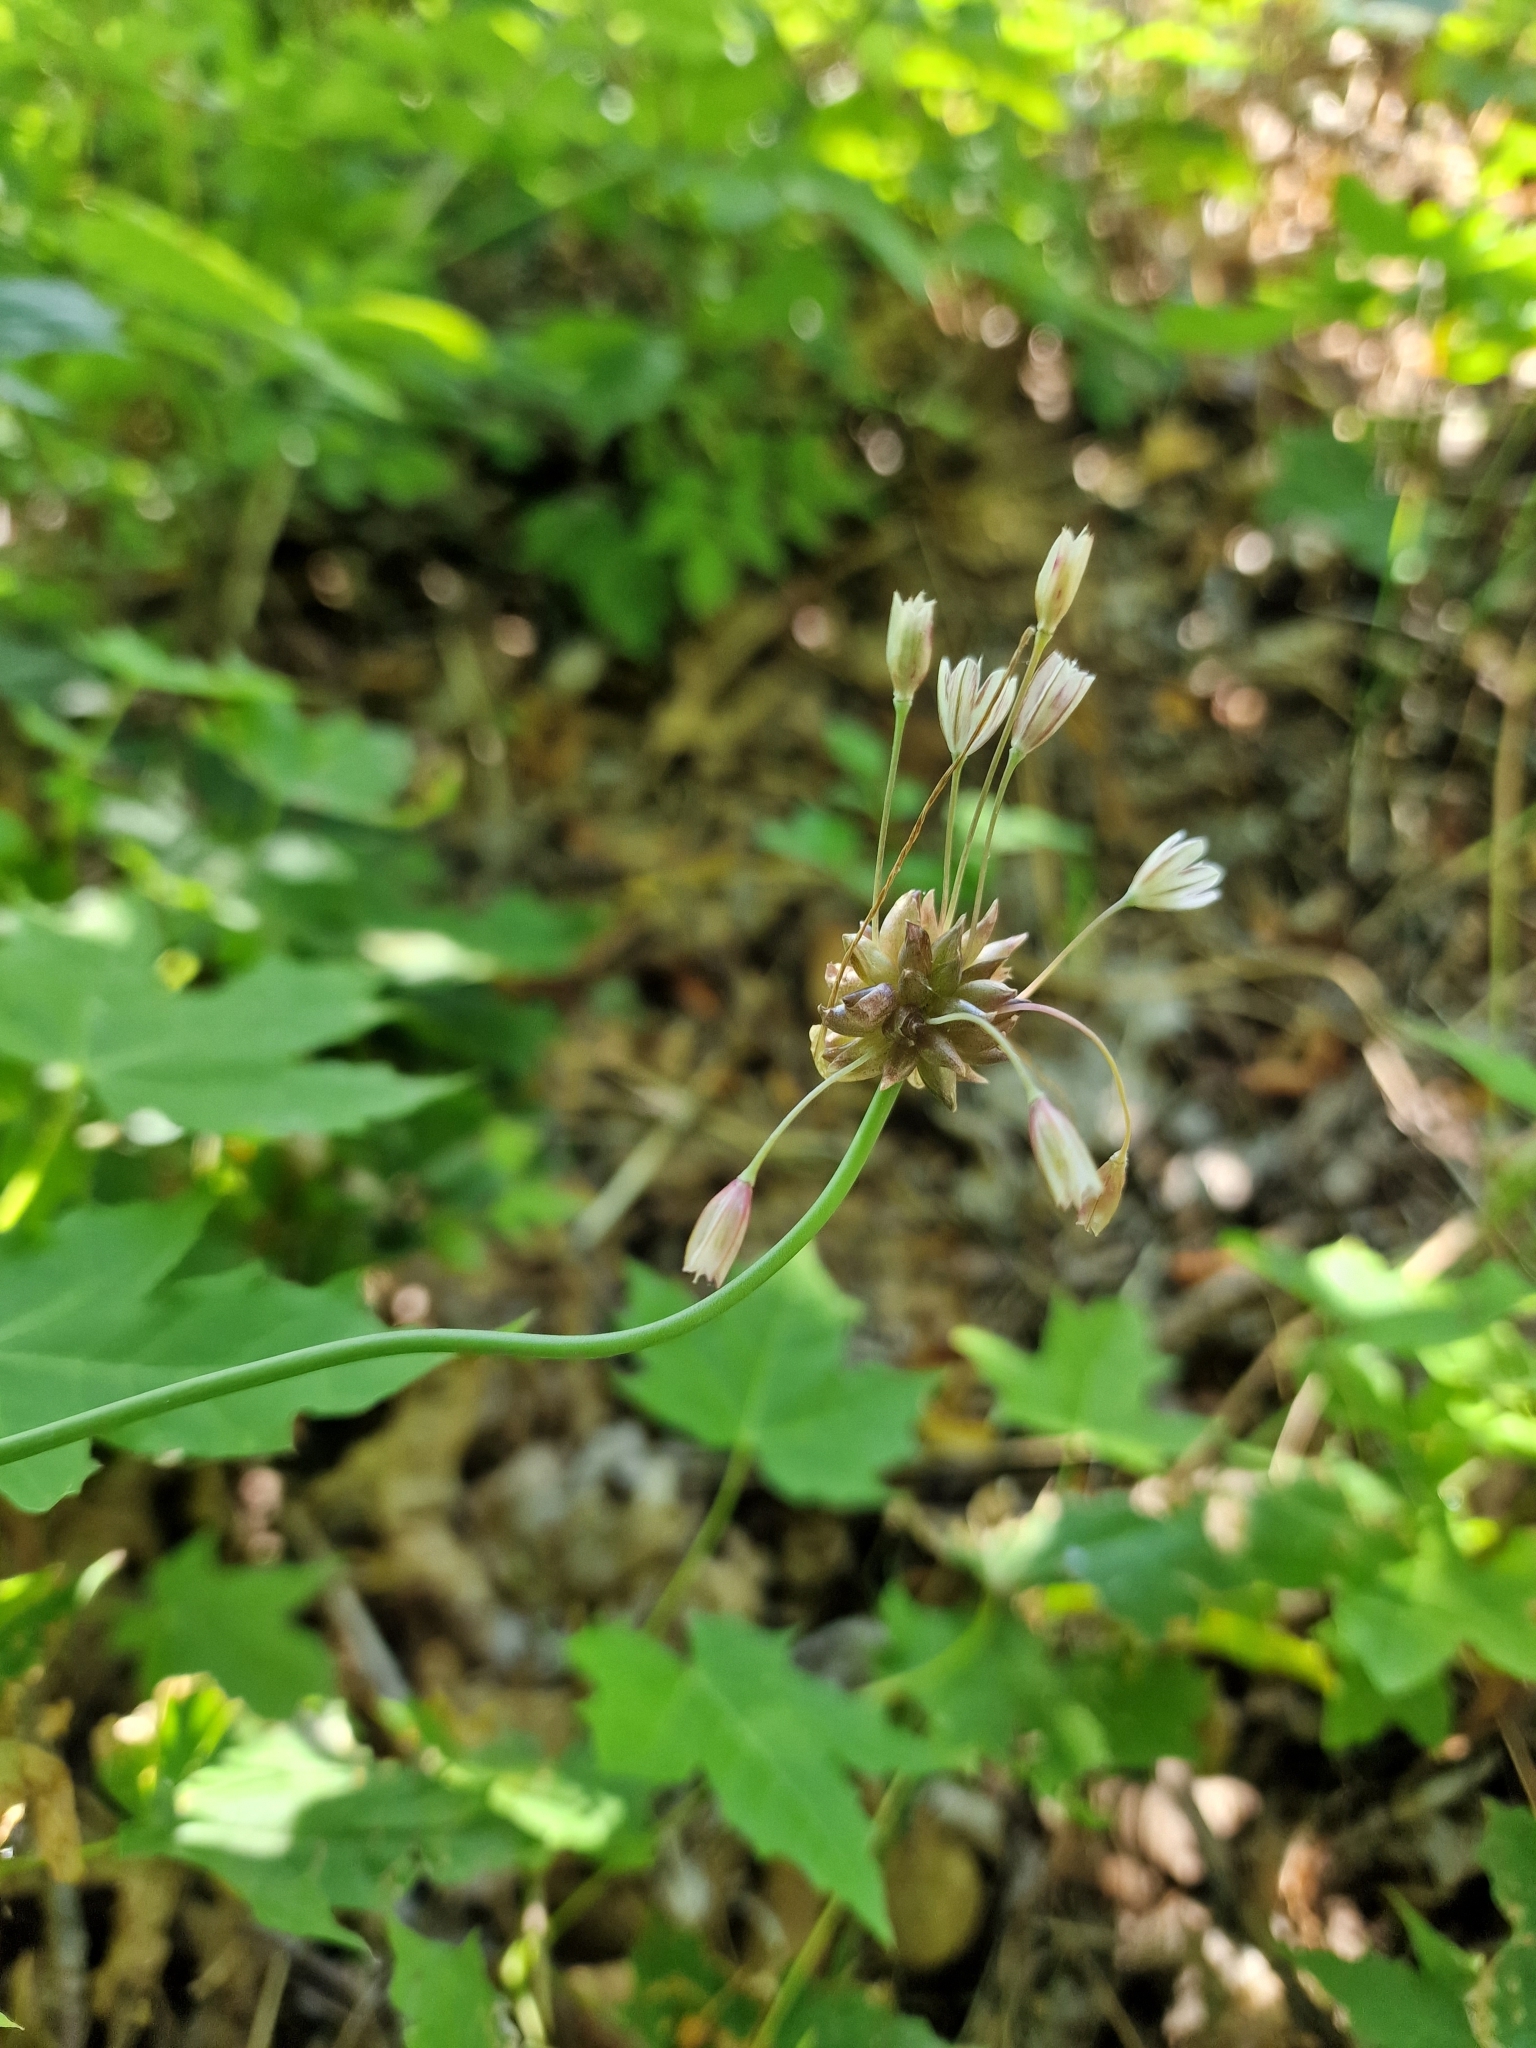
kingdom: Plantae
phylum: Tracheophyta
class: Liliopsida
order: Asparagales
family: Amaryllidaceae
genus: Allium
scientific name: Allium oleraceum
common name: Field garlic
